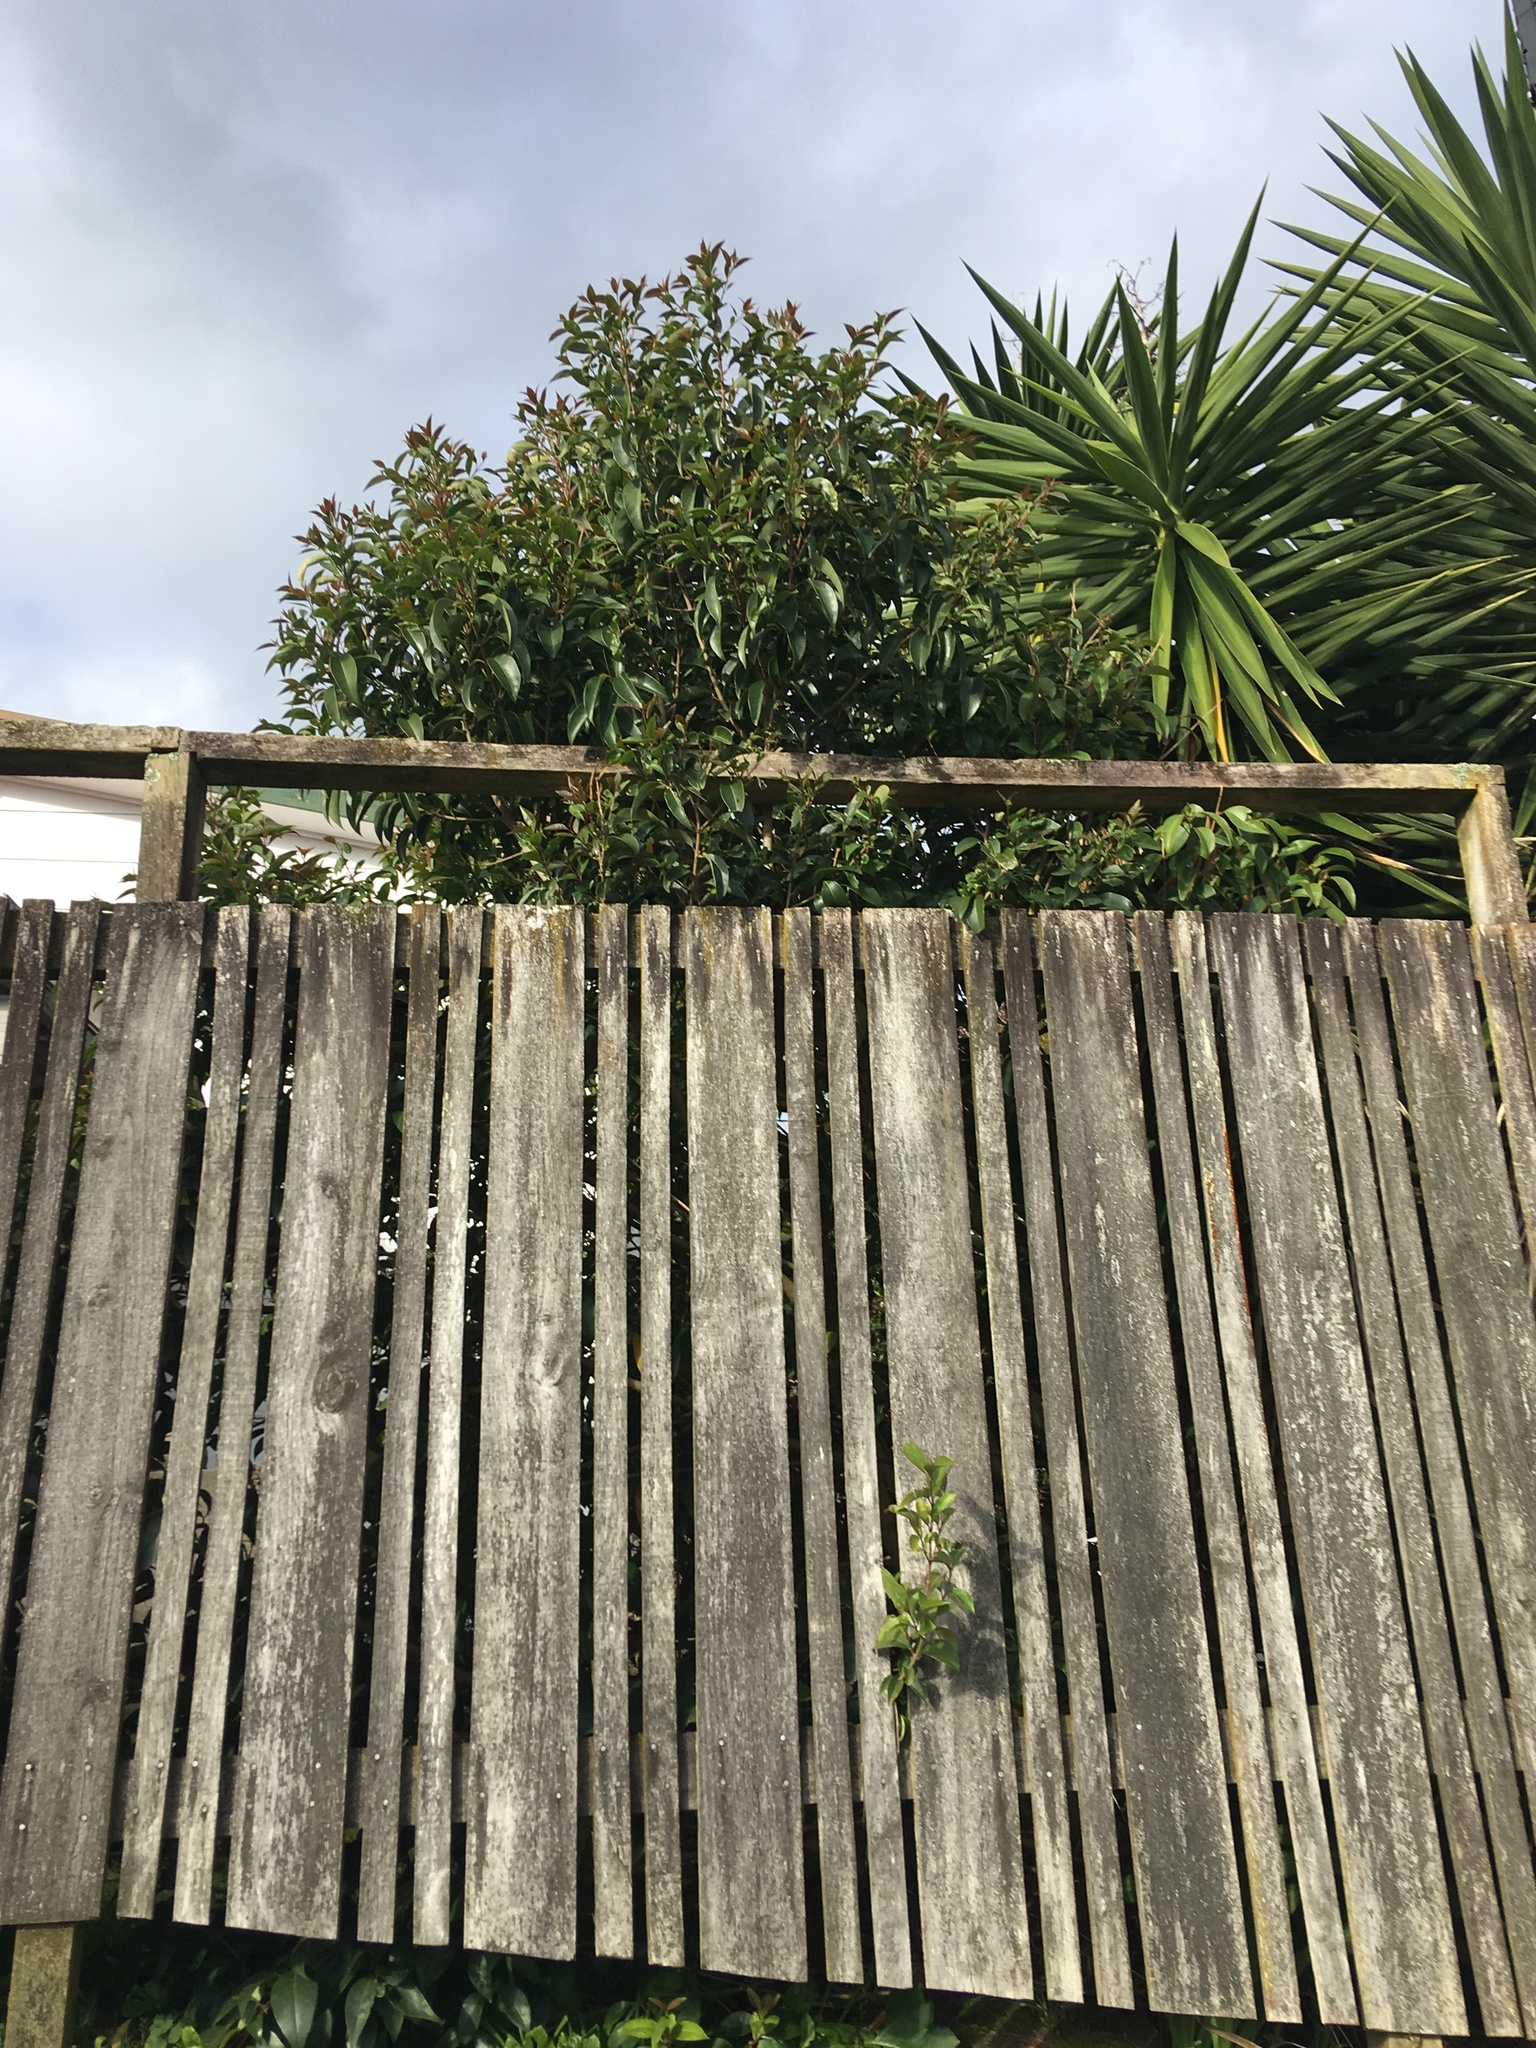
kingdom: Plantae
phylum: Tracheophyta
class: Magnoliopsida
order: Lamiales
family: Oleaceae
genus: Ligustrum
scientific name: Ligustrum lucidum
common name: Glossy privet
